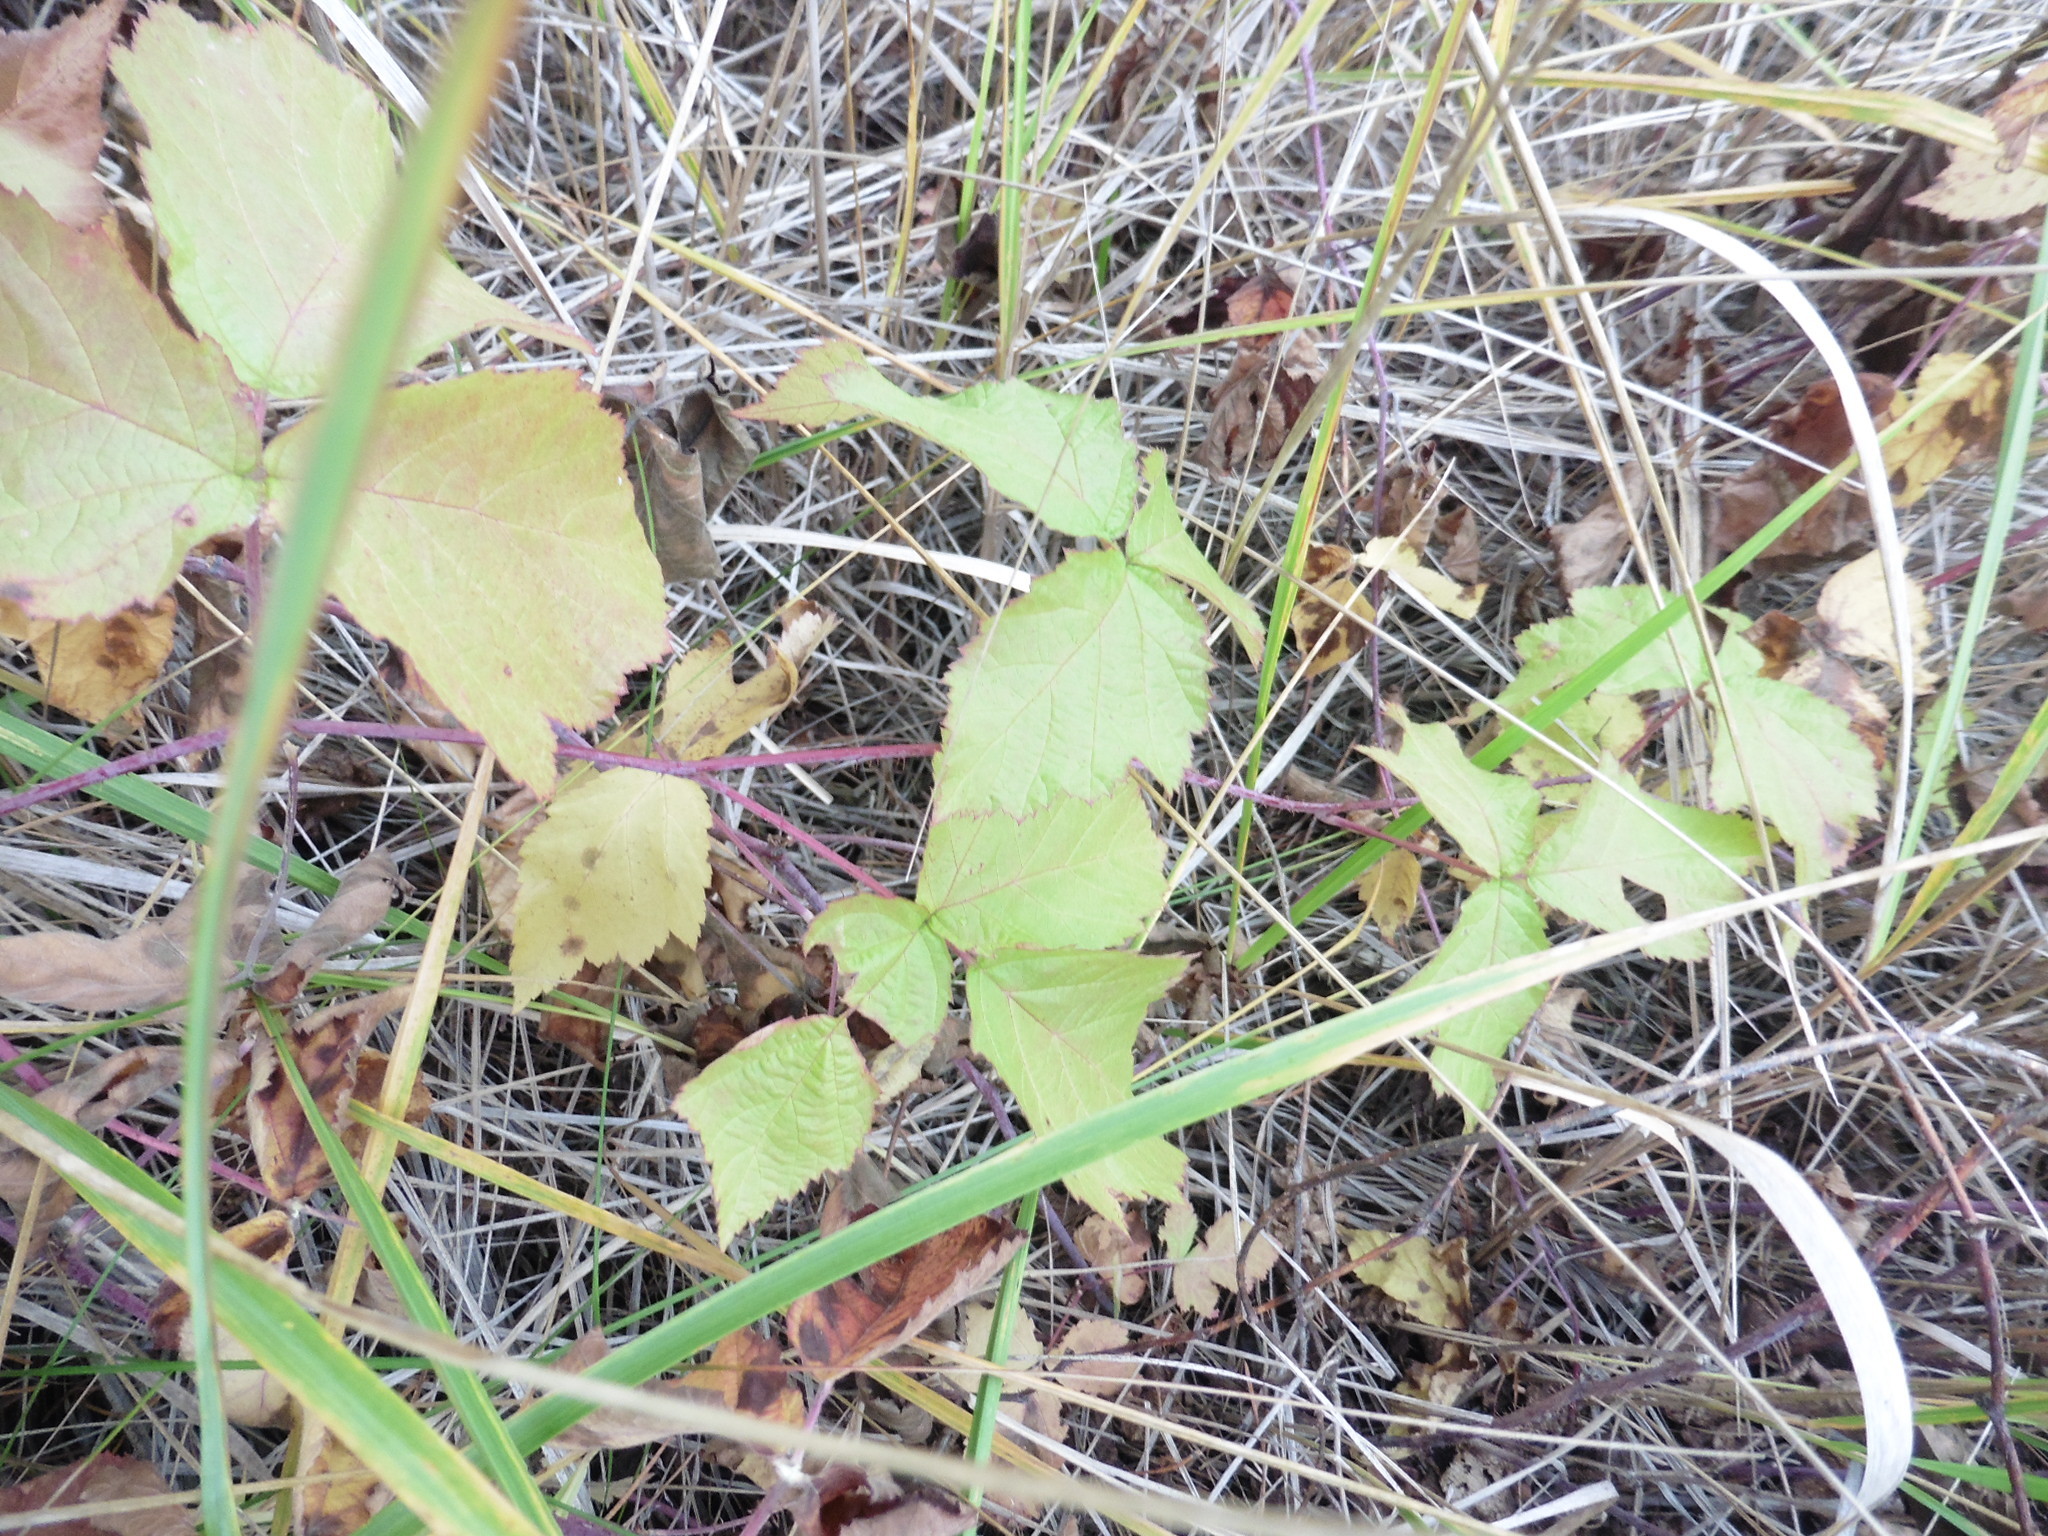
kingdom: Plantae
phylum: Tracheophyta
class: Magnoliopsida
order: Rosales
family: Rosaceae
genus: Rubus
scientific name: Rubus caesius
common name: Dewberry
